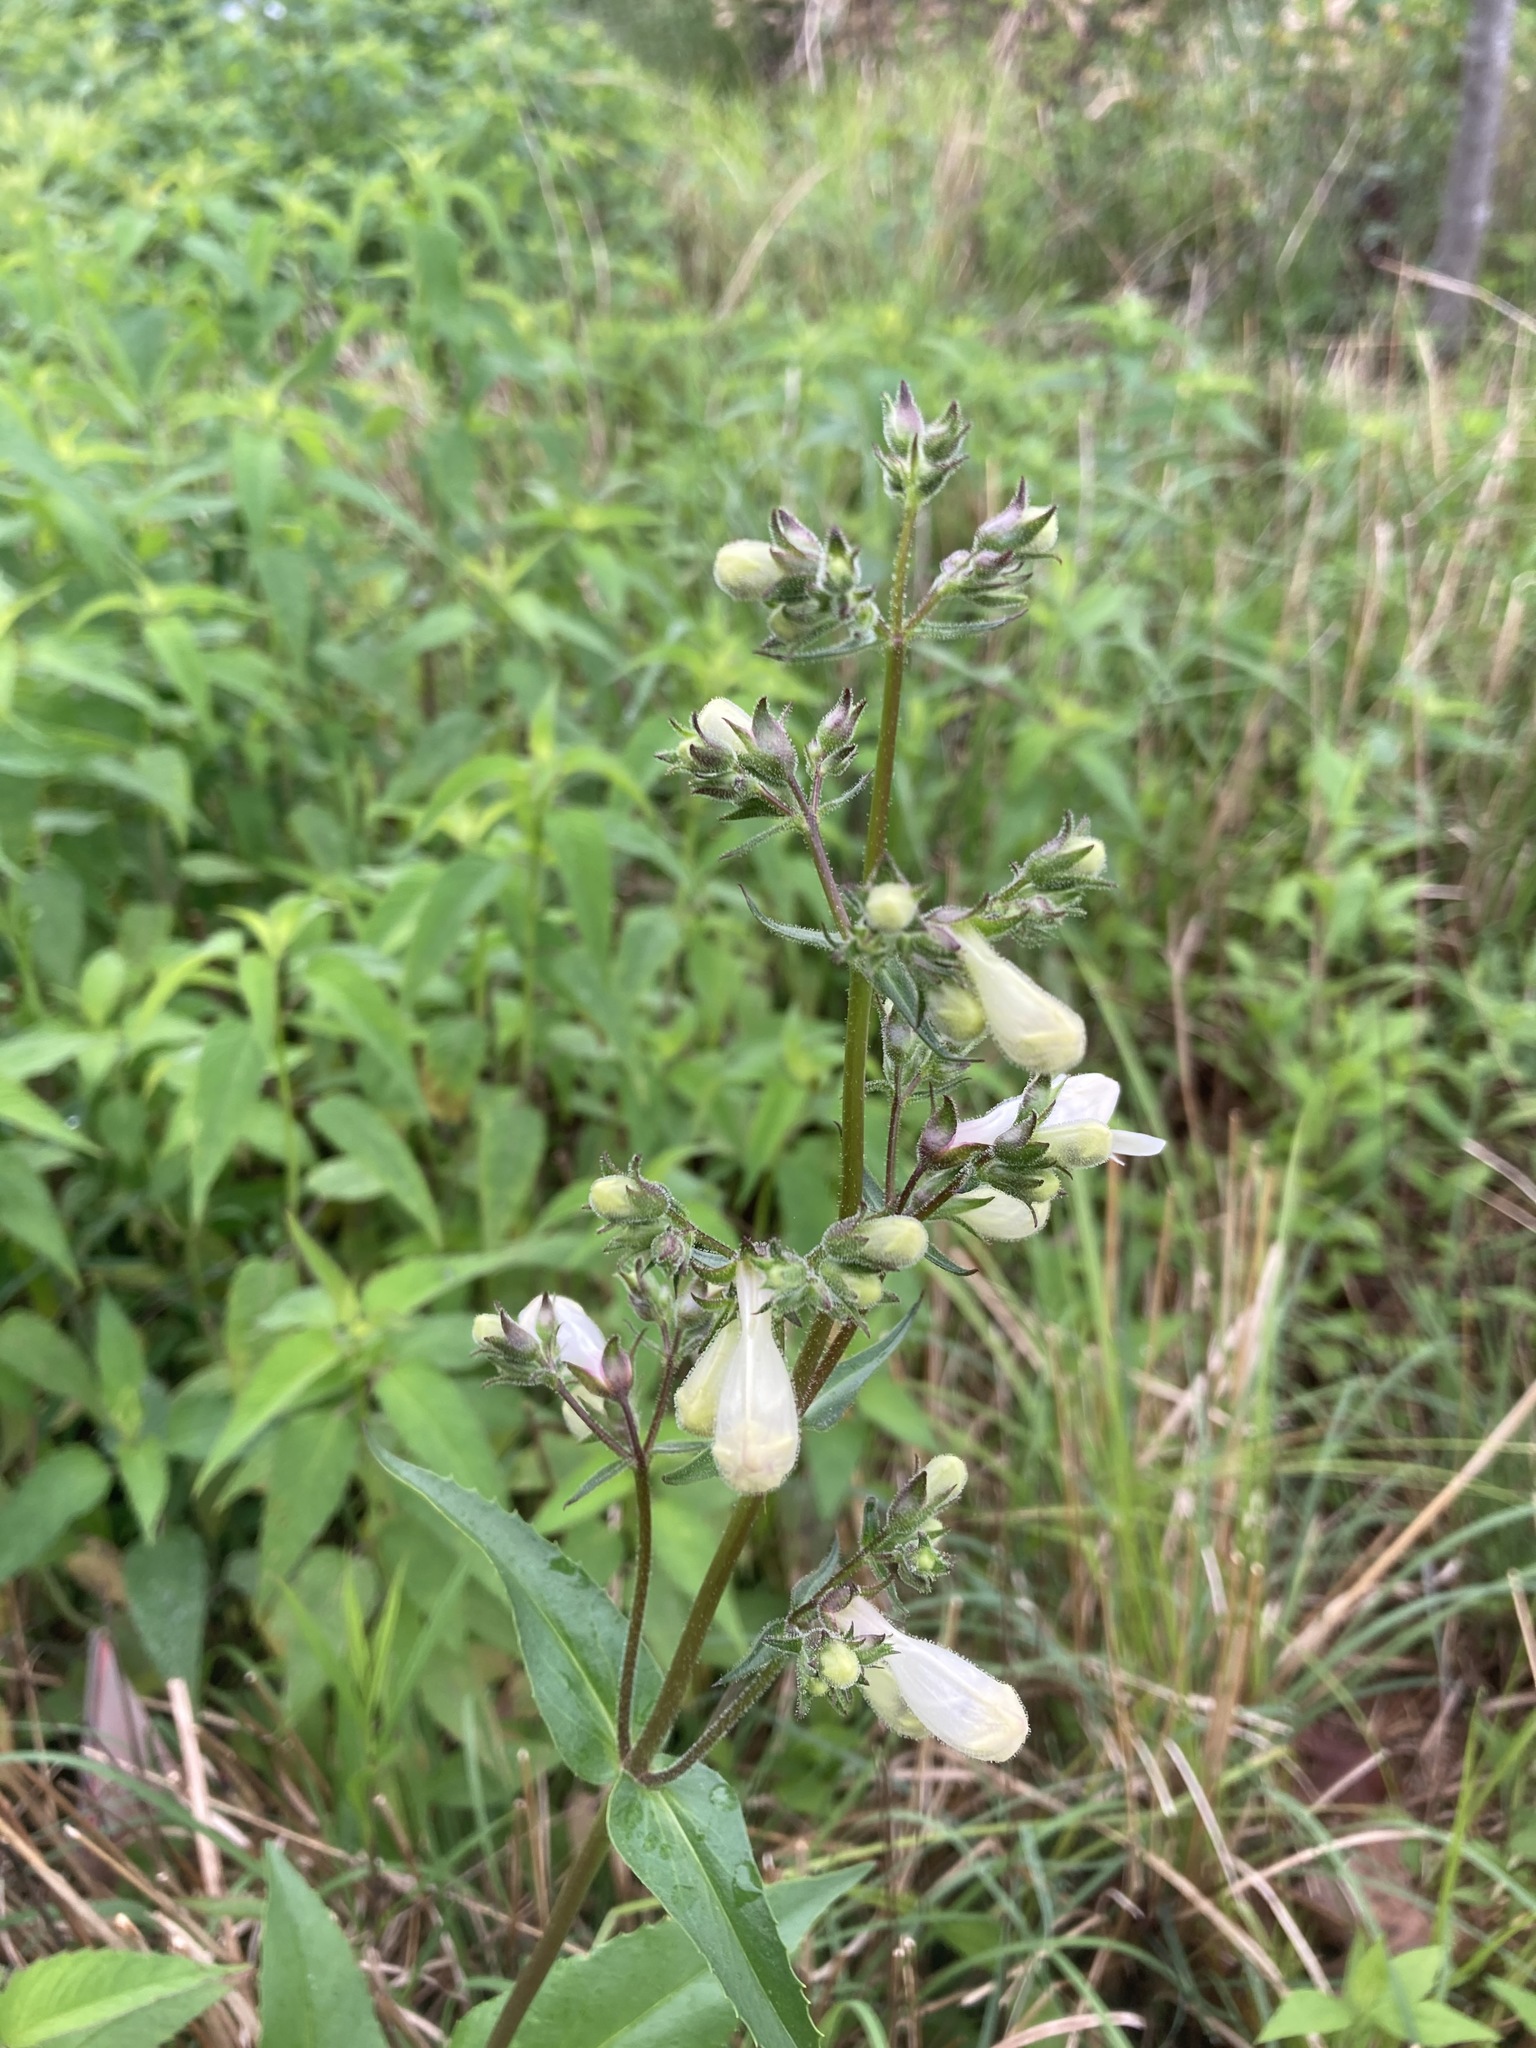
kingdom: Plantae
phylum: Tracheophyta
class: Magnoliopsida
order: Lamiales
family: Plantaginaceae
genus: Penstemon
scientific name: Penstemon digitalis
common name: Foxglove beardtongue
